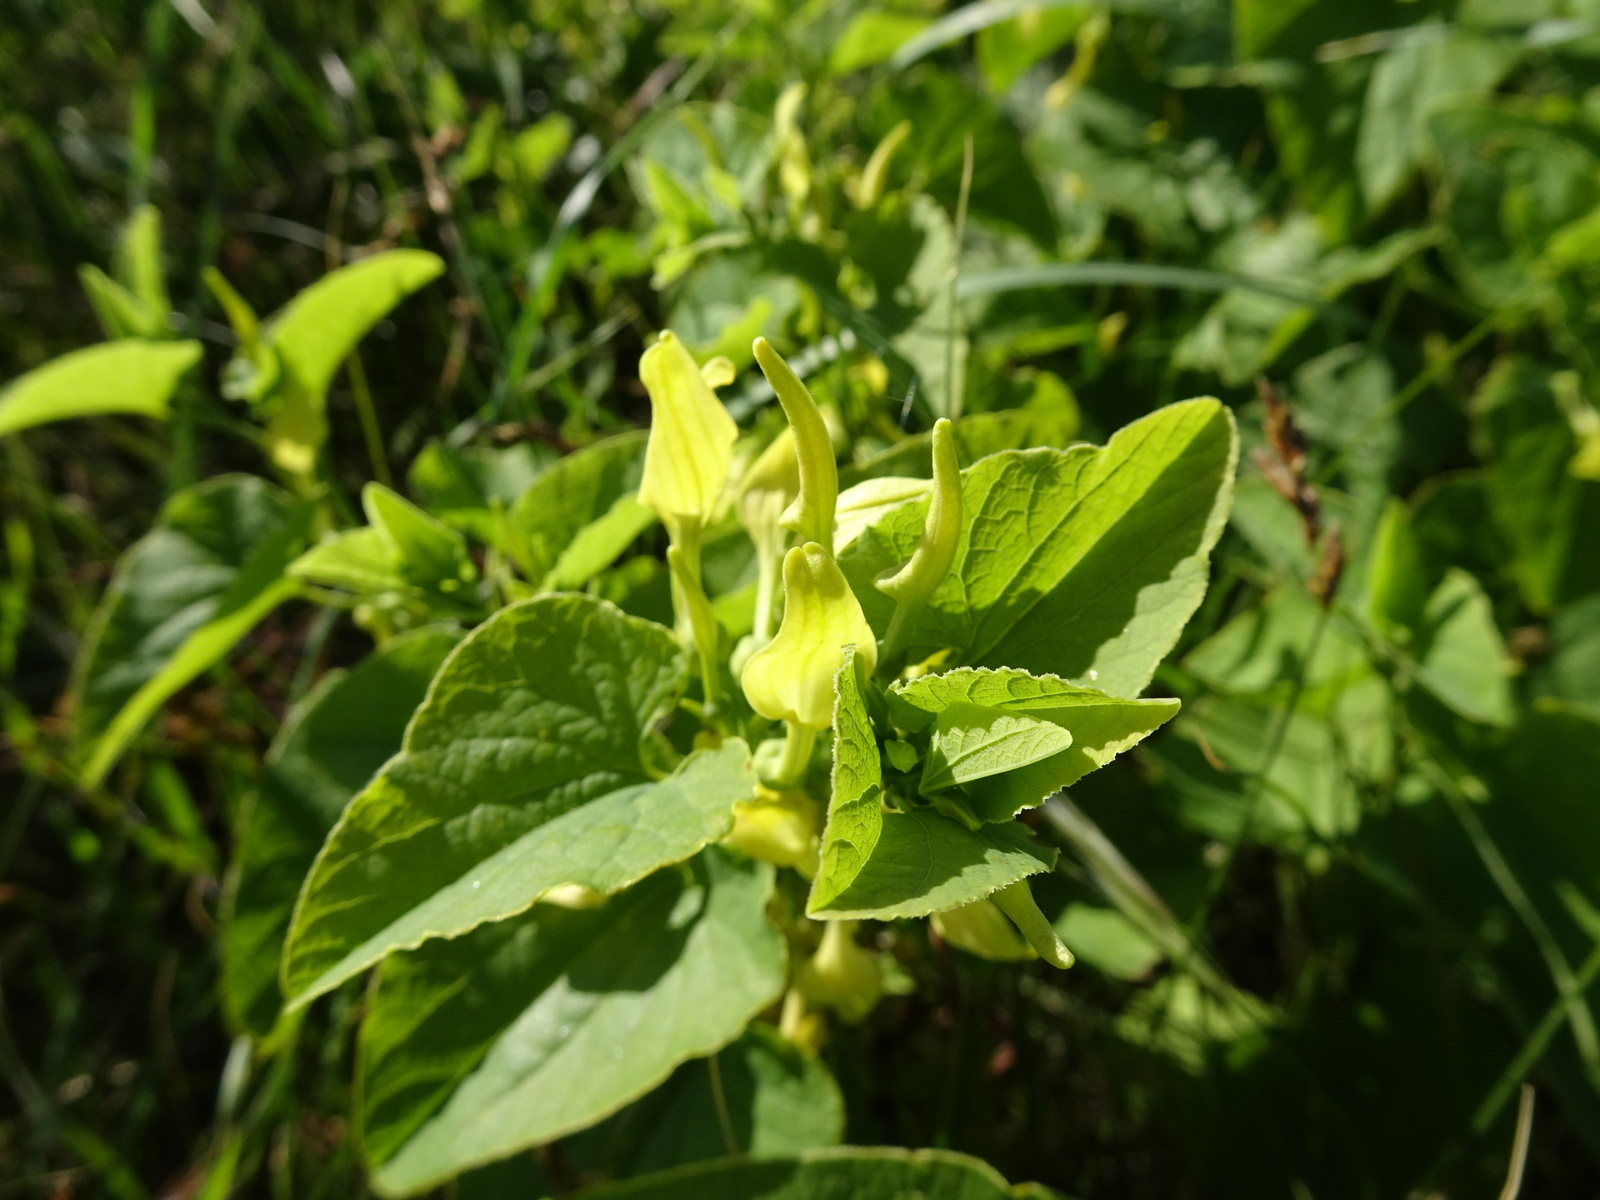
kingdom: Plantae
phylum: Tracheophyta
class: Magnoliopsida
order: Piperales
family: Aristolochiaceae
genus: Aristolochia
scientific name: Aristolochia clematitis
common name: Birthwort
